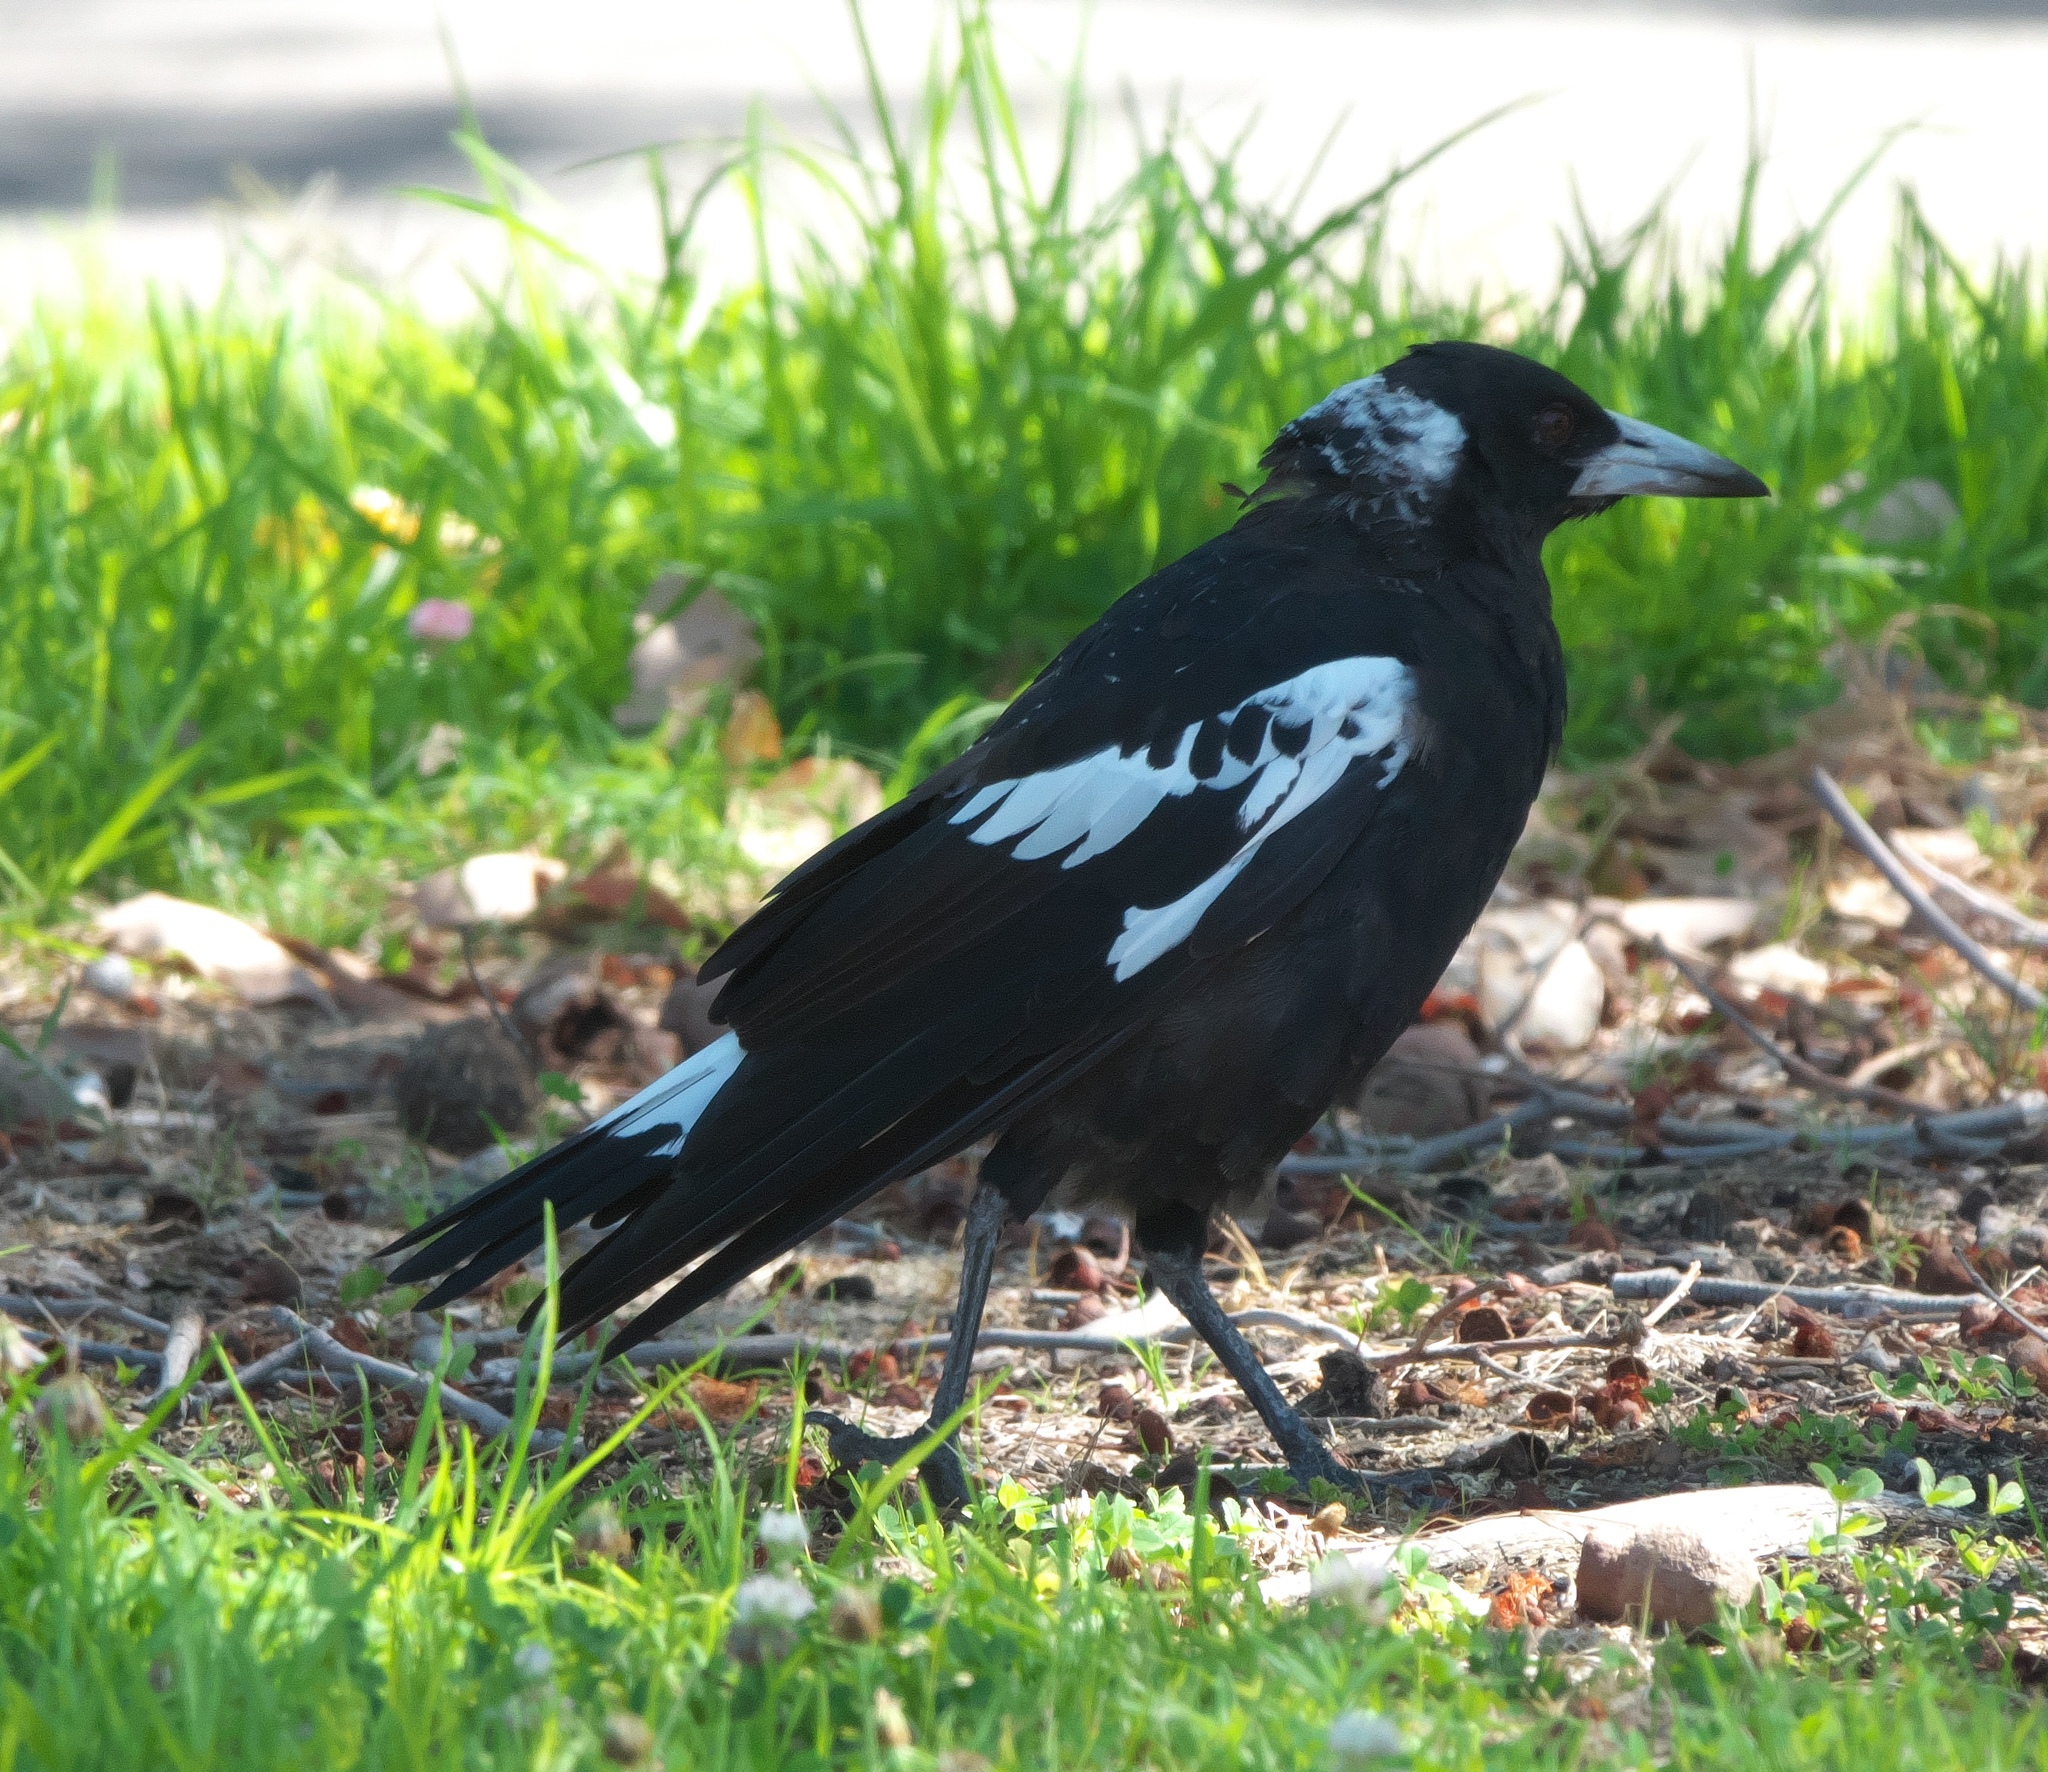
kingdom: Animalia
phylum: Chordata
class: Aves
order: Passeriformes
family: Cracticidae
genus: Gymnorhina
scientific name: Gymnorhina tibicen
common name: Australian magpie
